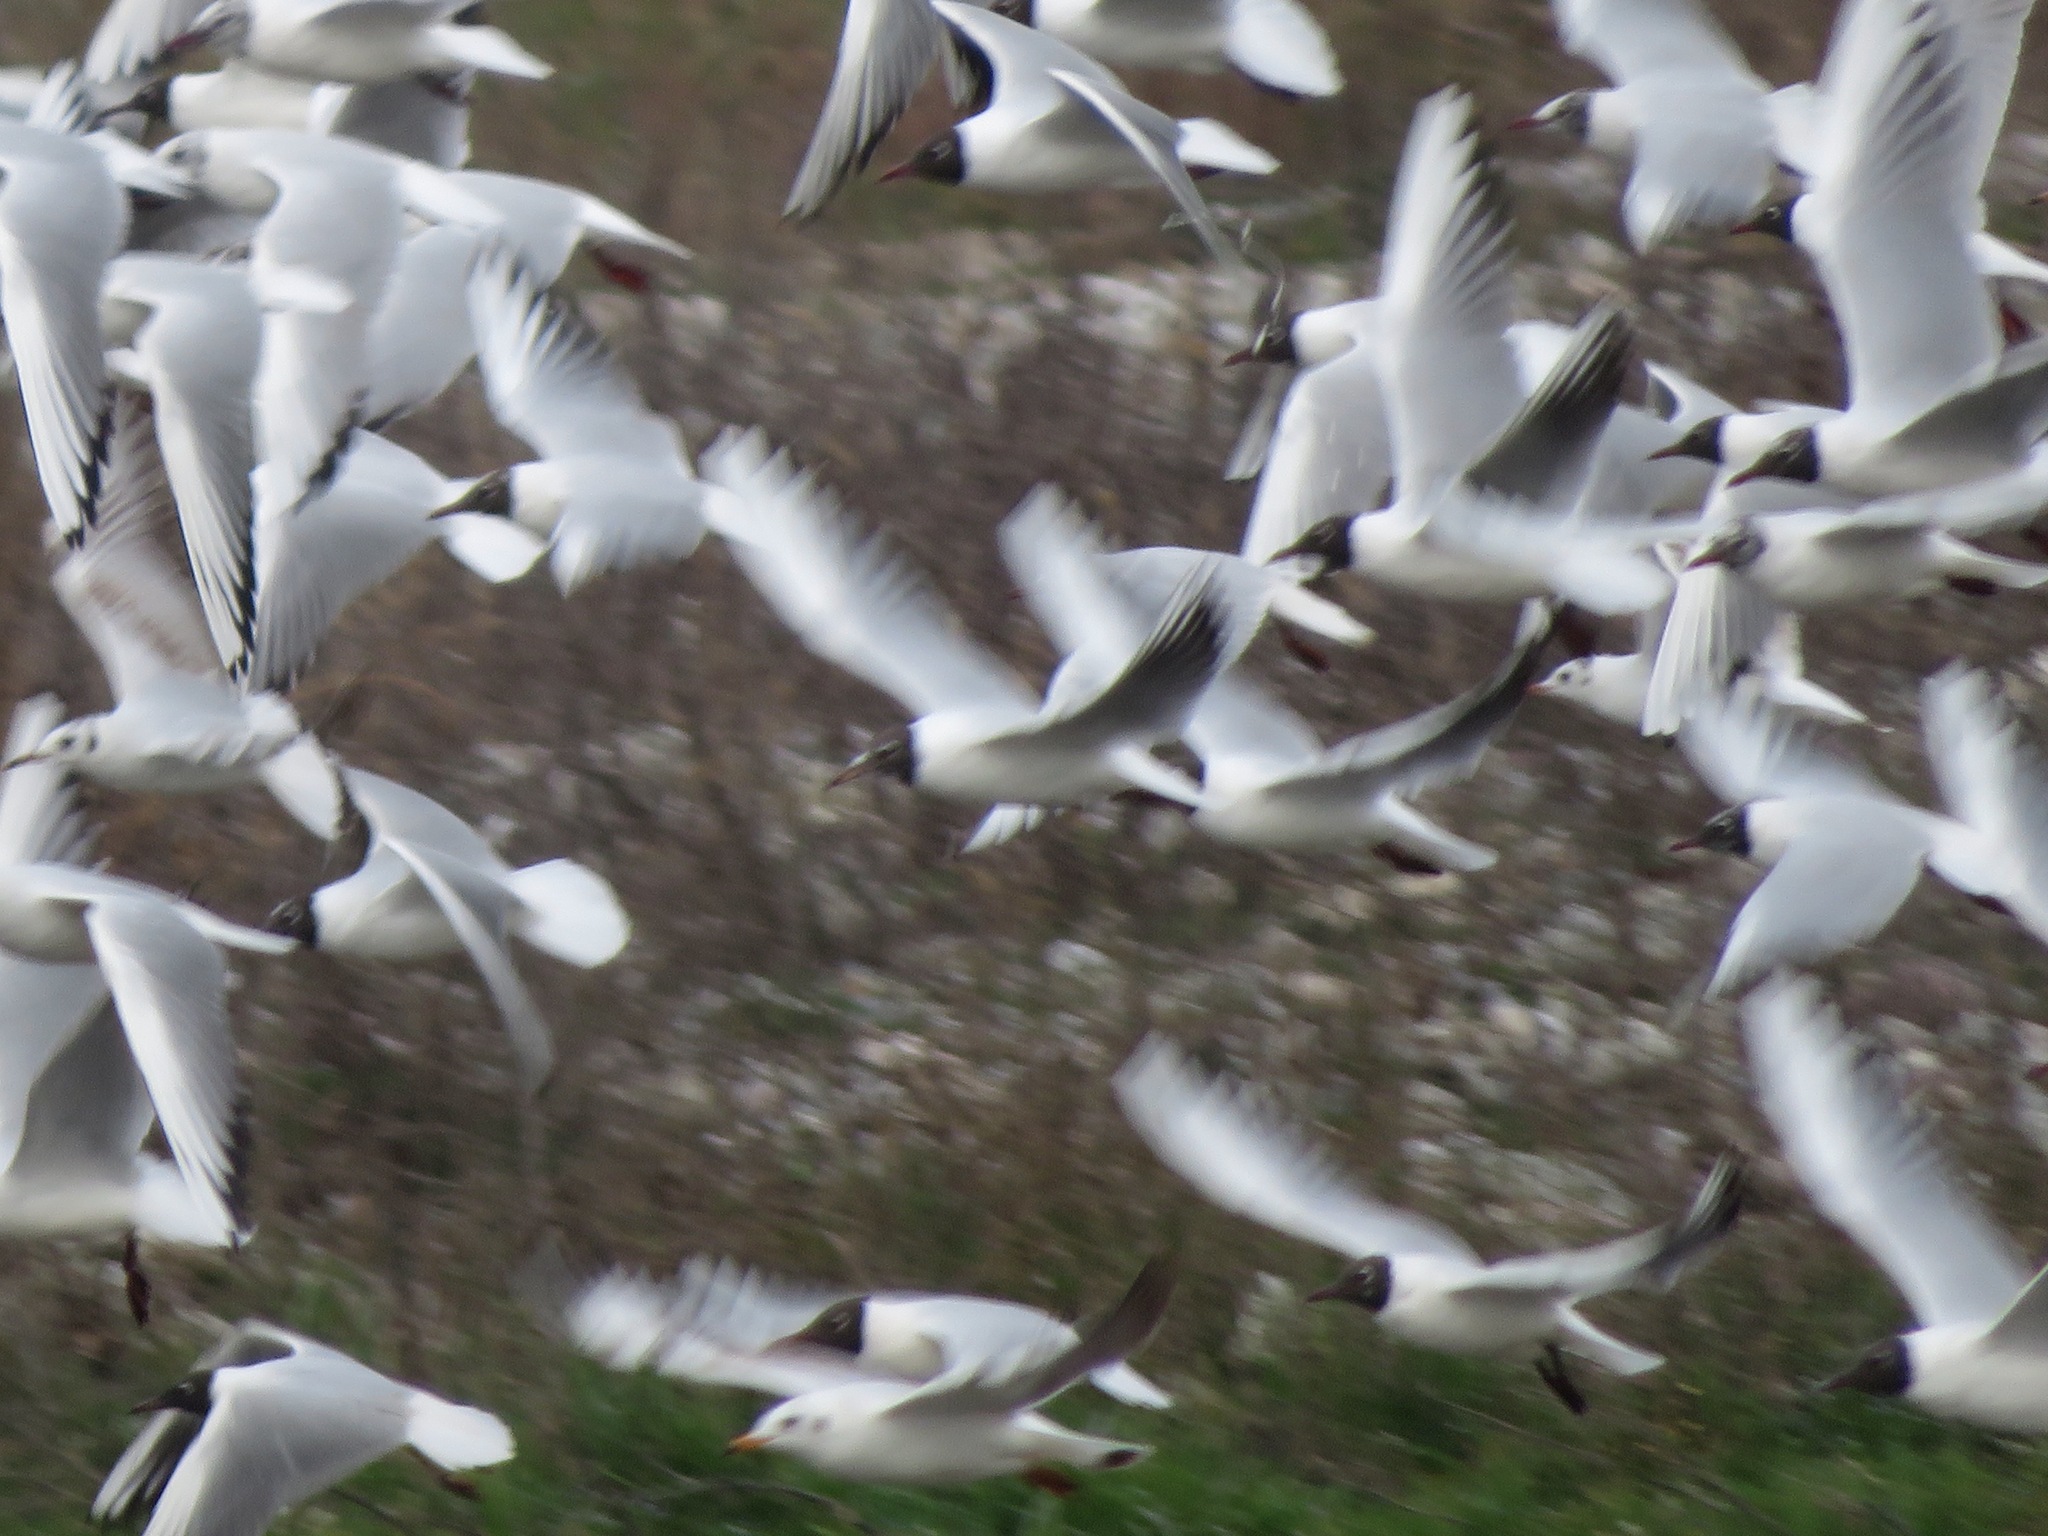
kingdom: Animalia
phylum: Chordata
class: Aves
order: Charadriiformes
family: Laridae
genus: Chroicocephalus
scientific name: Chroicocephalus ridibundus
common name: Black-headed gull
